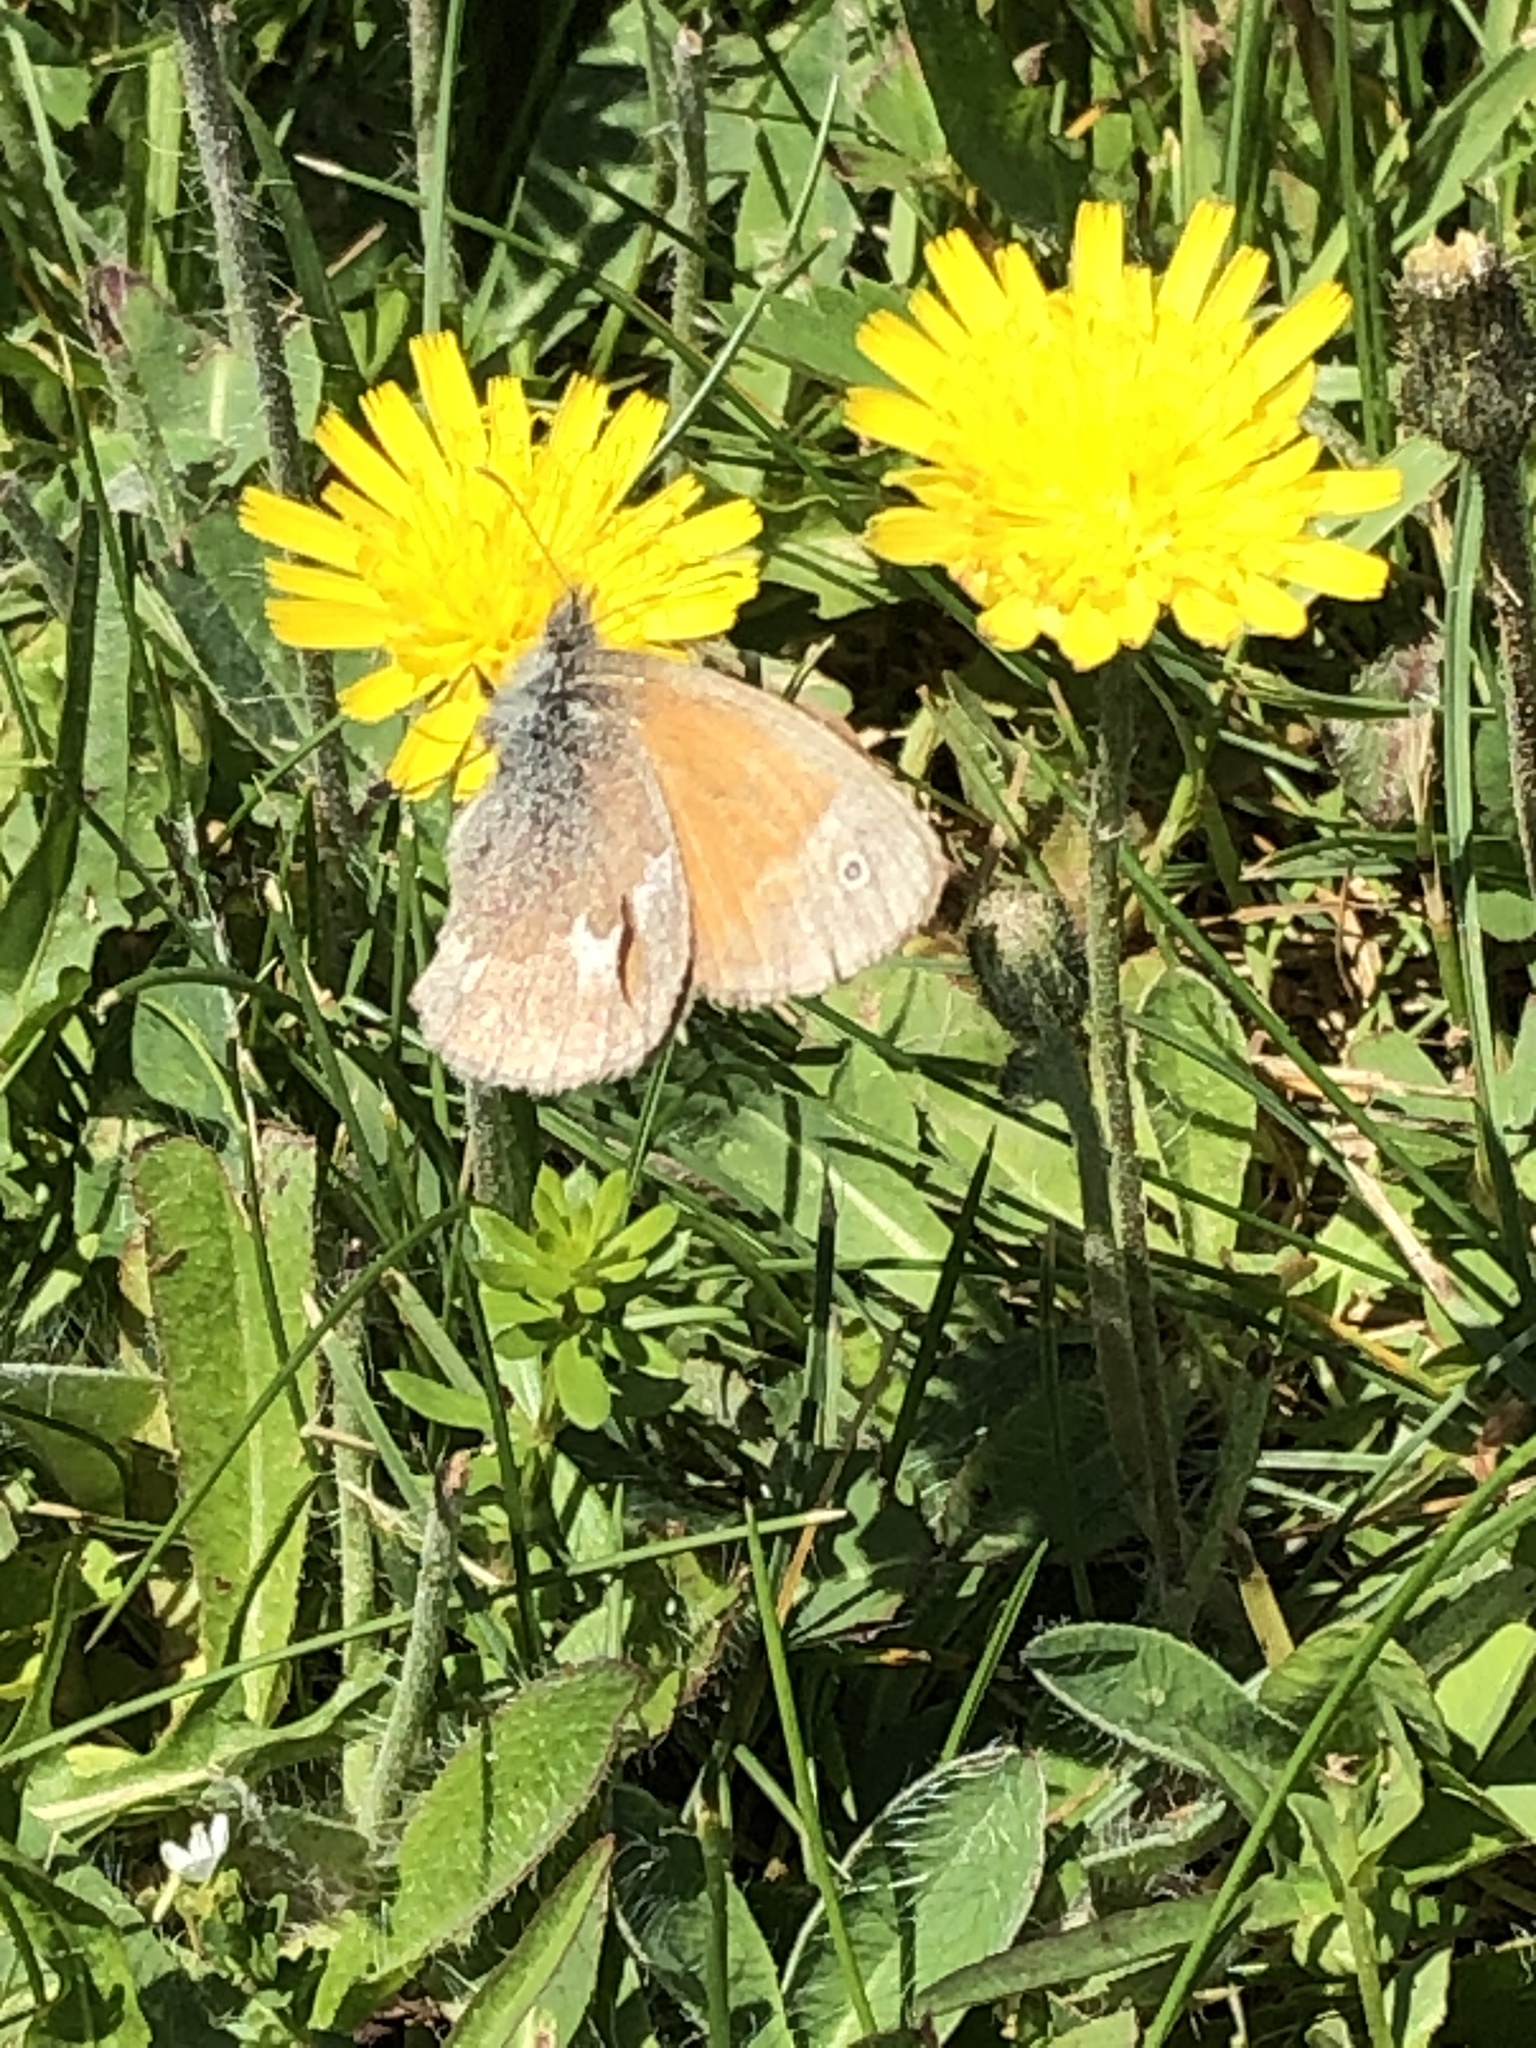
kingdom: Animalia
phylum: Arthropoda
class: Insecta
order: Lepidoptera
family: Nymphalidae
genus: Coenonympha
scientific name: Coenonympha california
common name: Common ringlet
